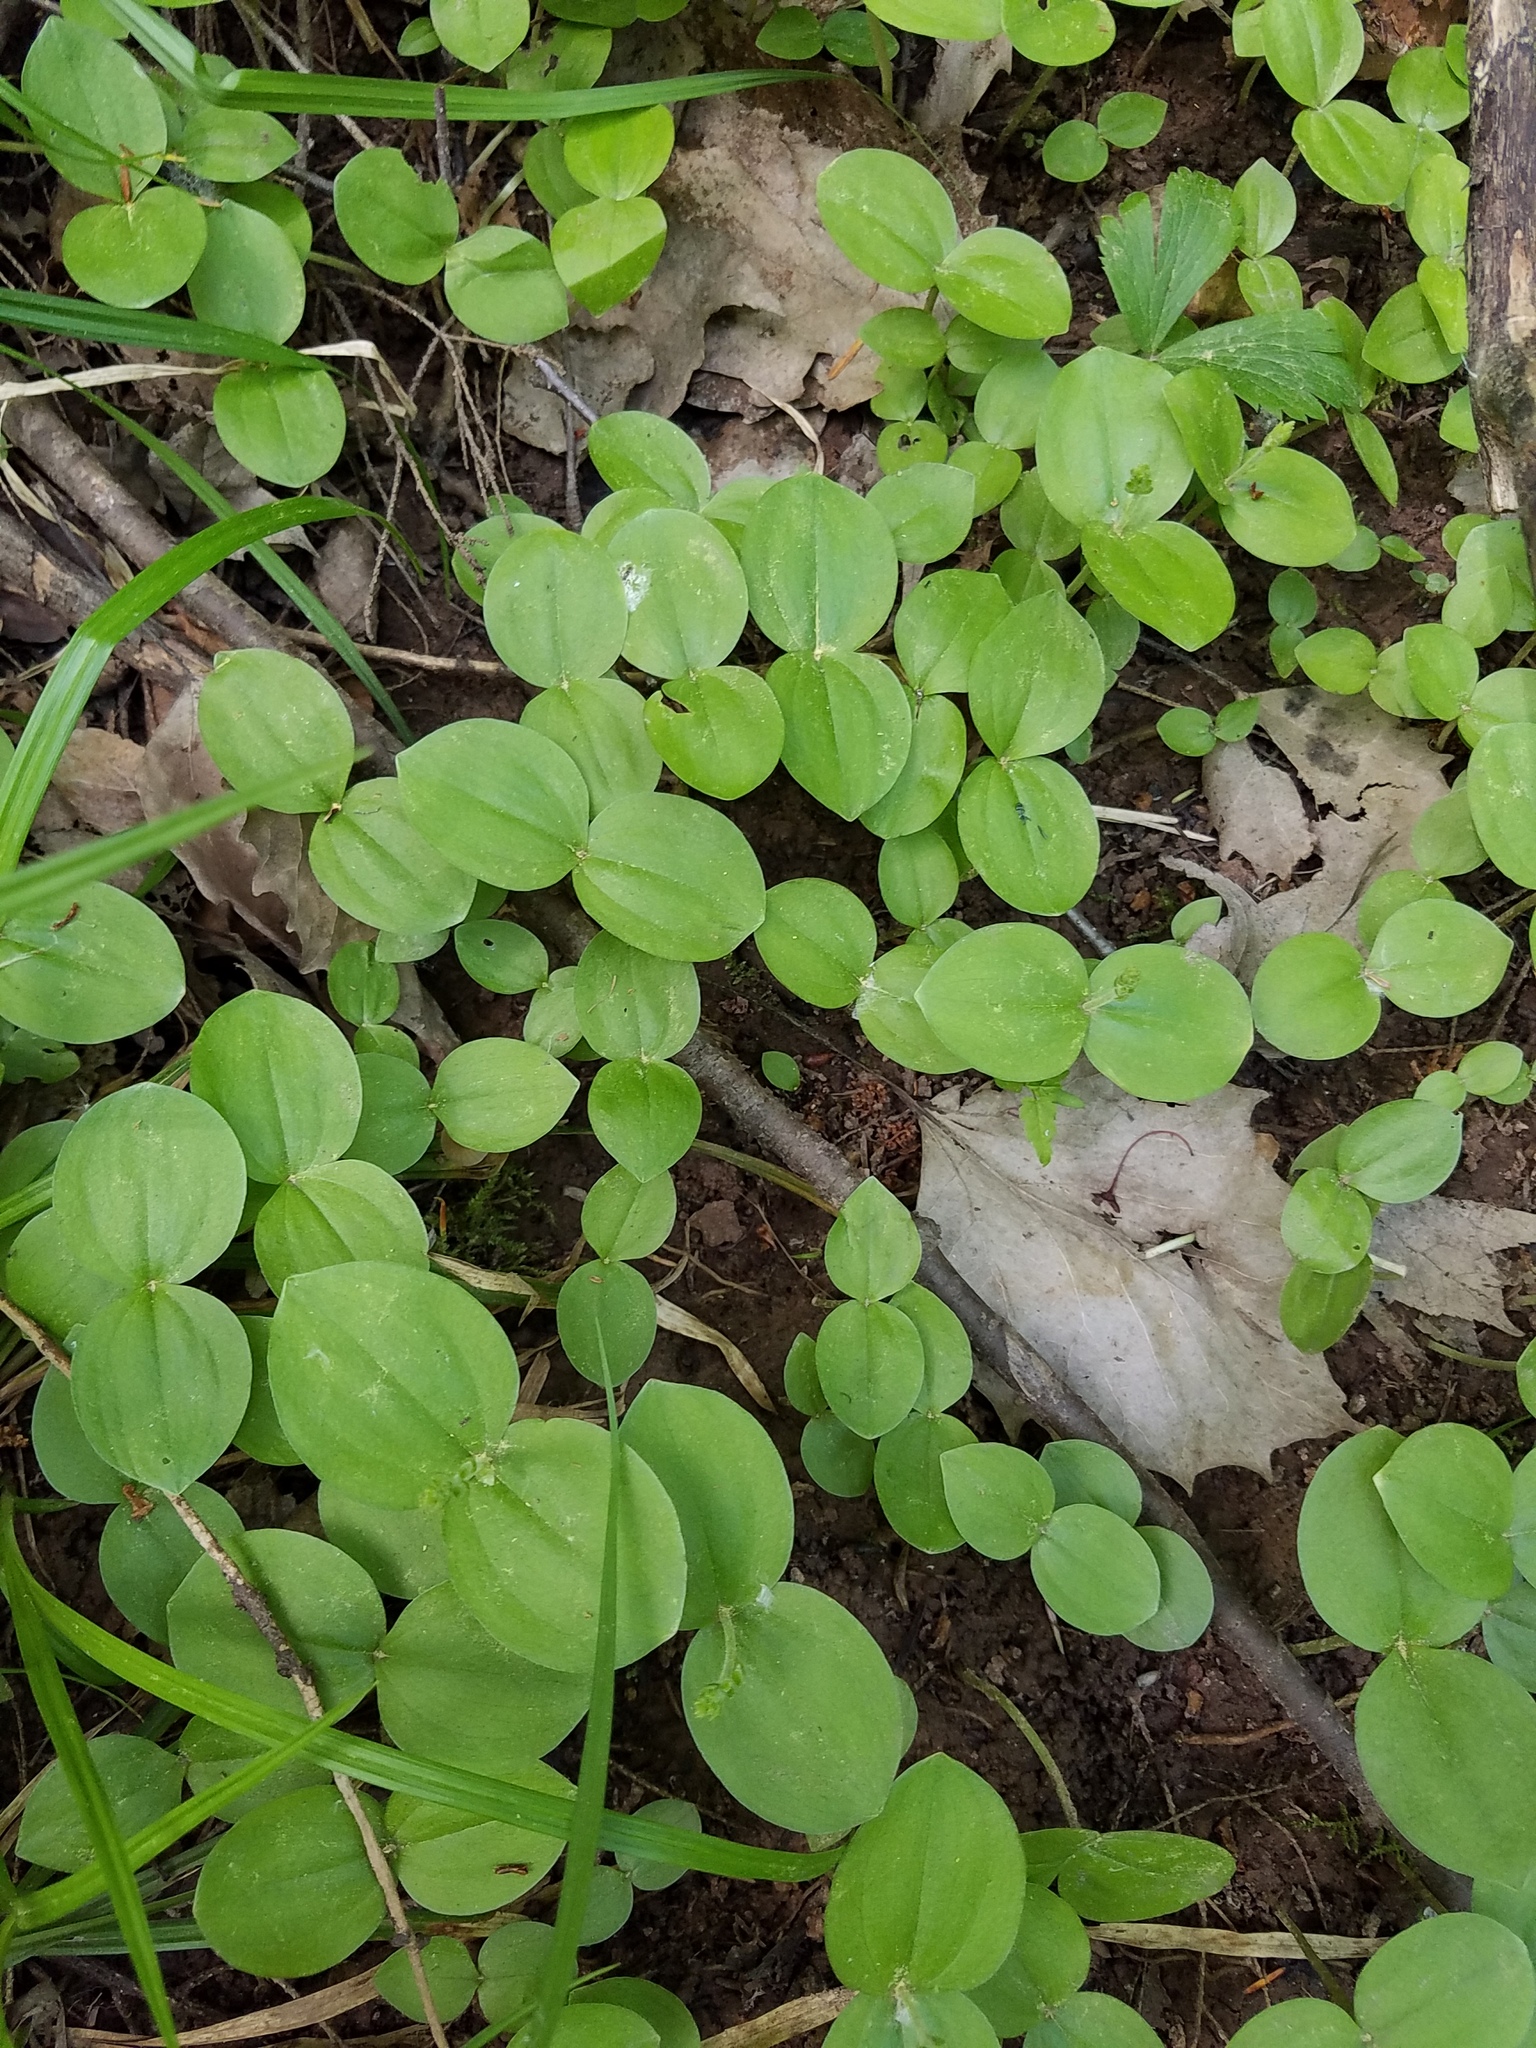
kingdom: Plantae
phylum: Tracheophyta
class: Liliopsida
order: Asparagales
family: Orchidaceae
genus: Neottia
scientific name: Neottia convallarioides
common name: Broadleaf twayblade
